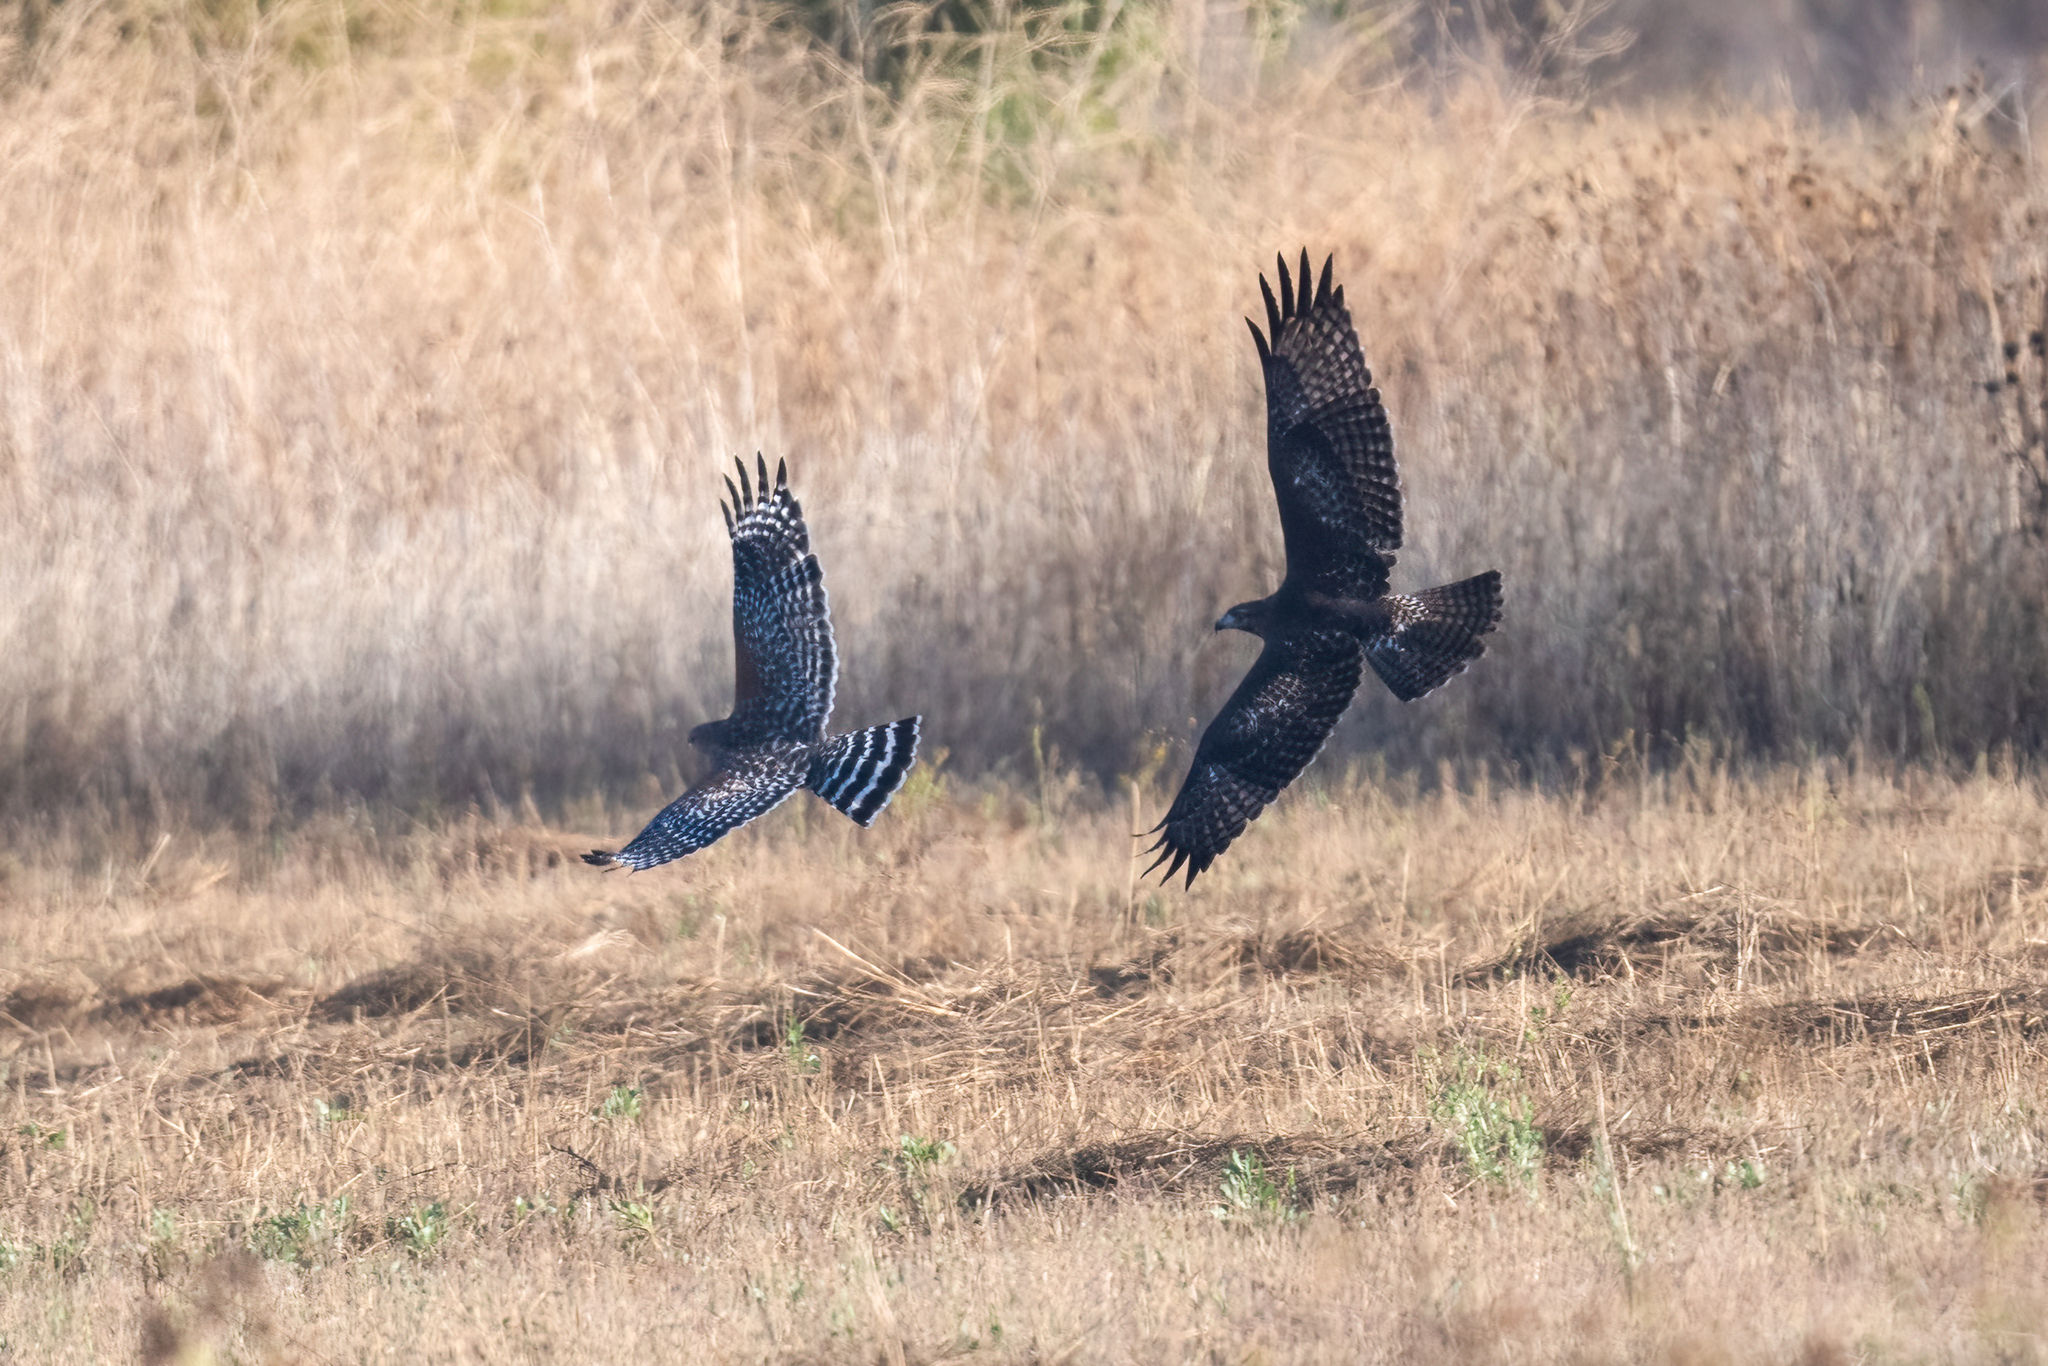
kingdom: Animalia
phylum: Chordata
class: Aves
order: Accipitriformes
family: Accipitridae
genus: Buteo
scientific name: Buteo lineatus
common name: Red-shouldered hawk
